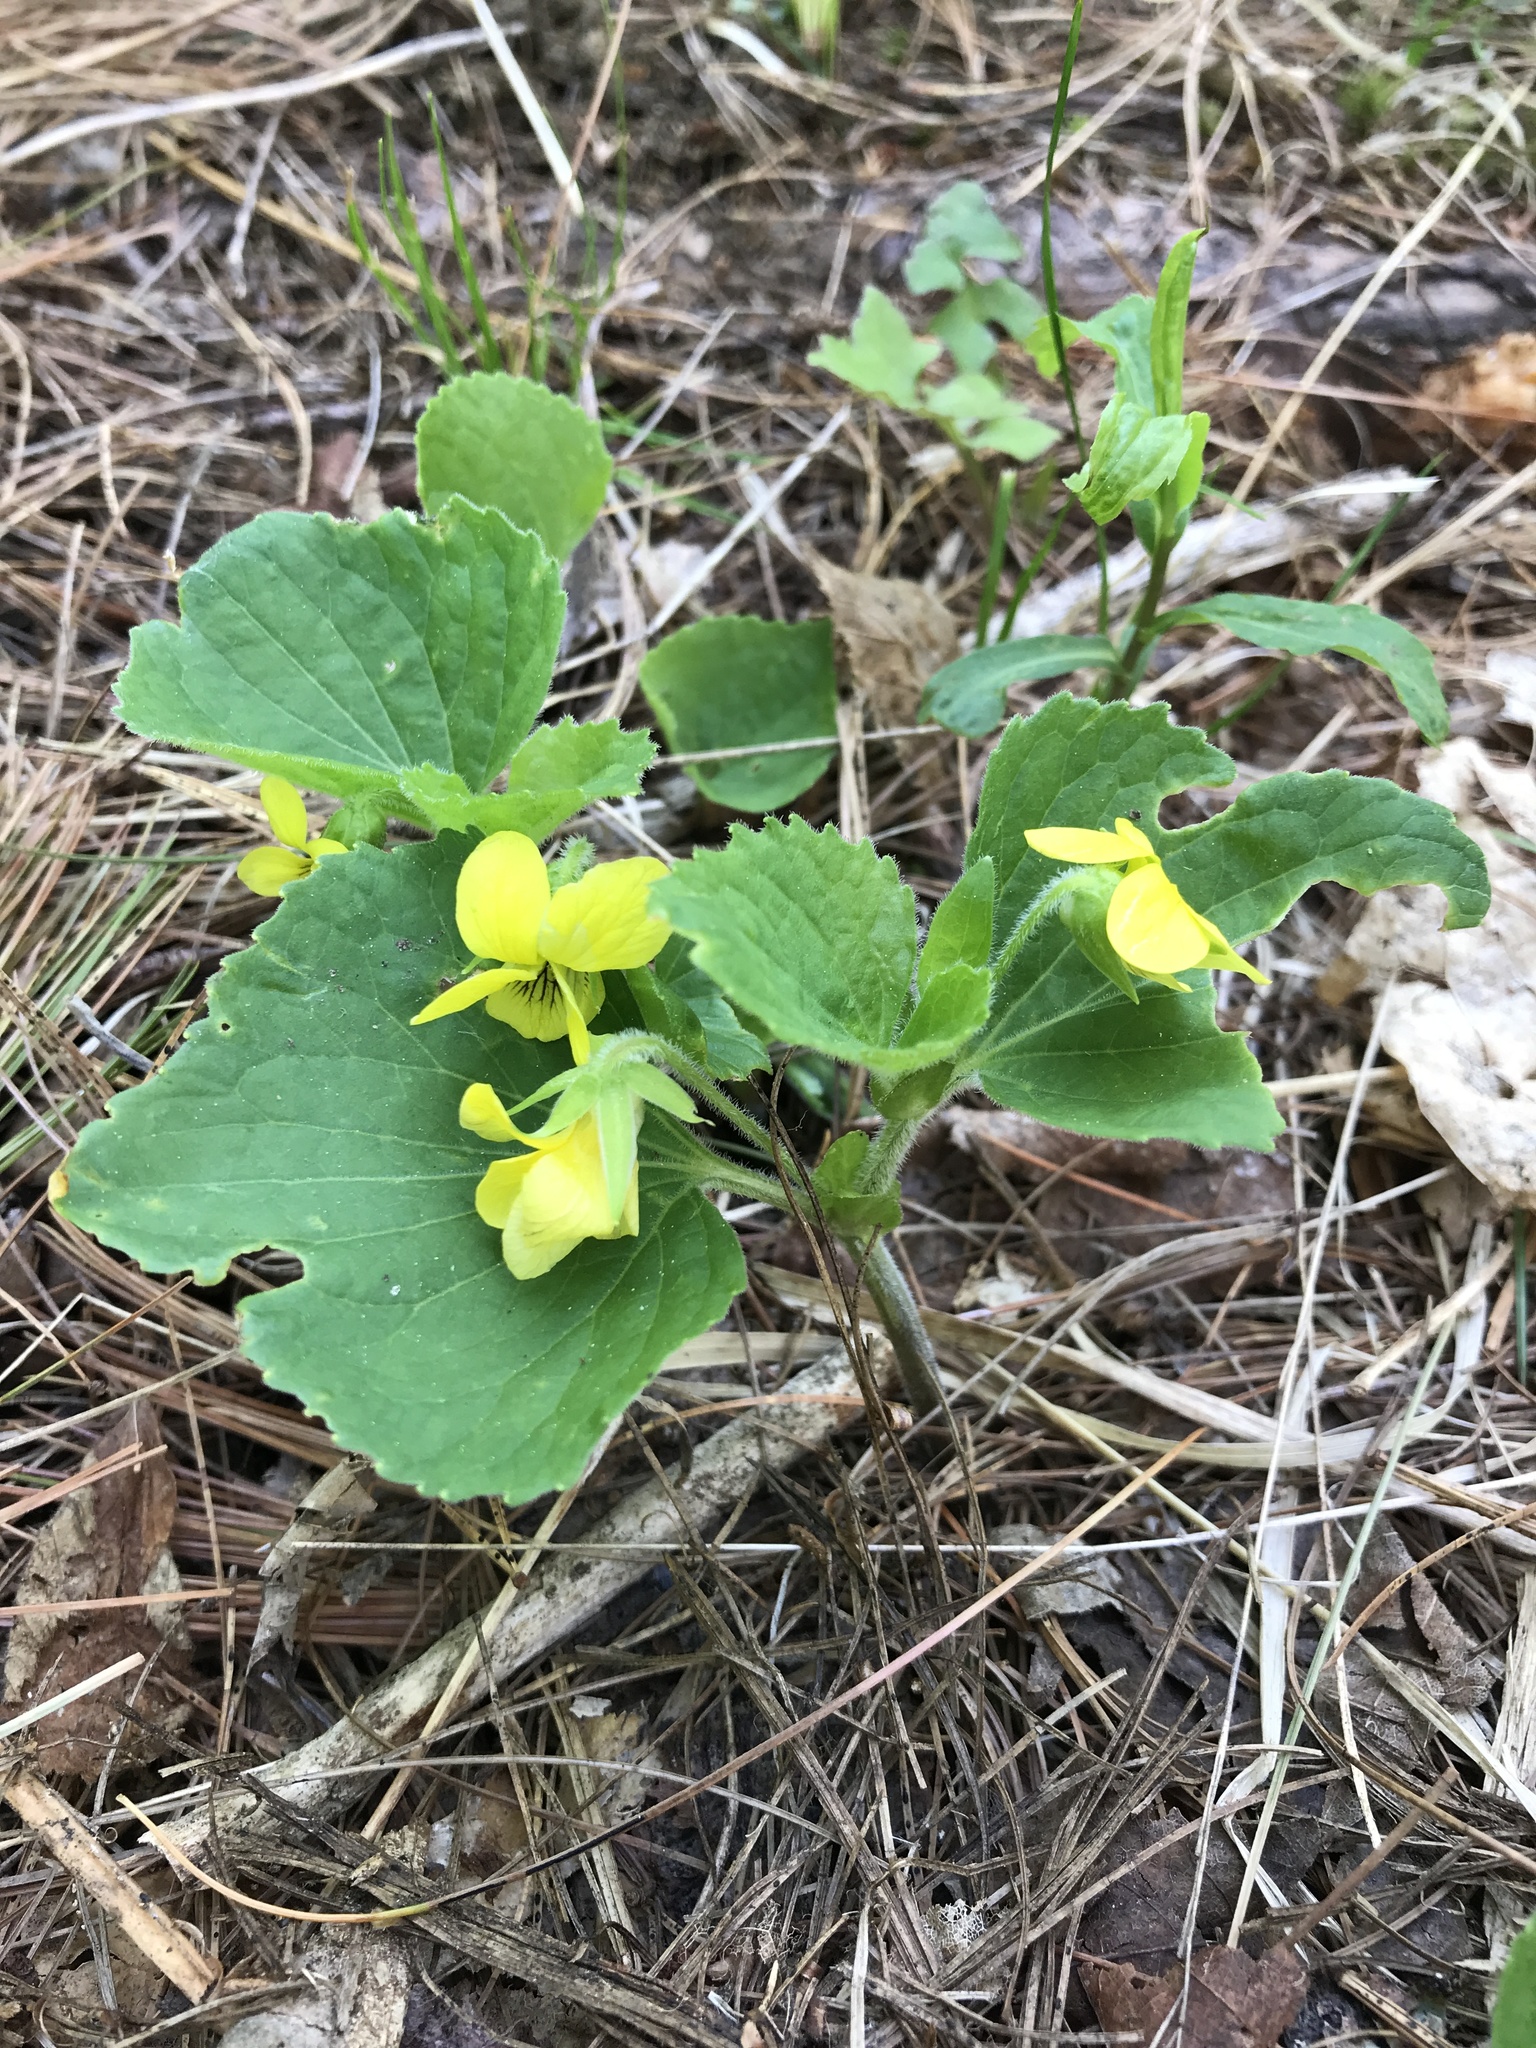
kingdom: Plantae
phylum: Tracheophyta
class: Magnoliopsida
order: Malpighiales
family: Violaceae
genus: Viola
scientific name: Viola pubescens
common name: Yellow forest violet
